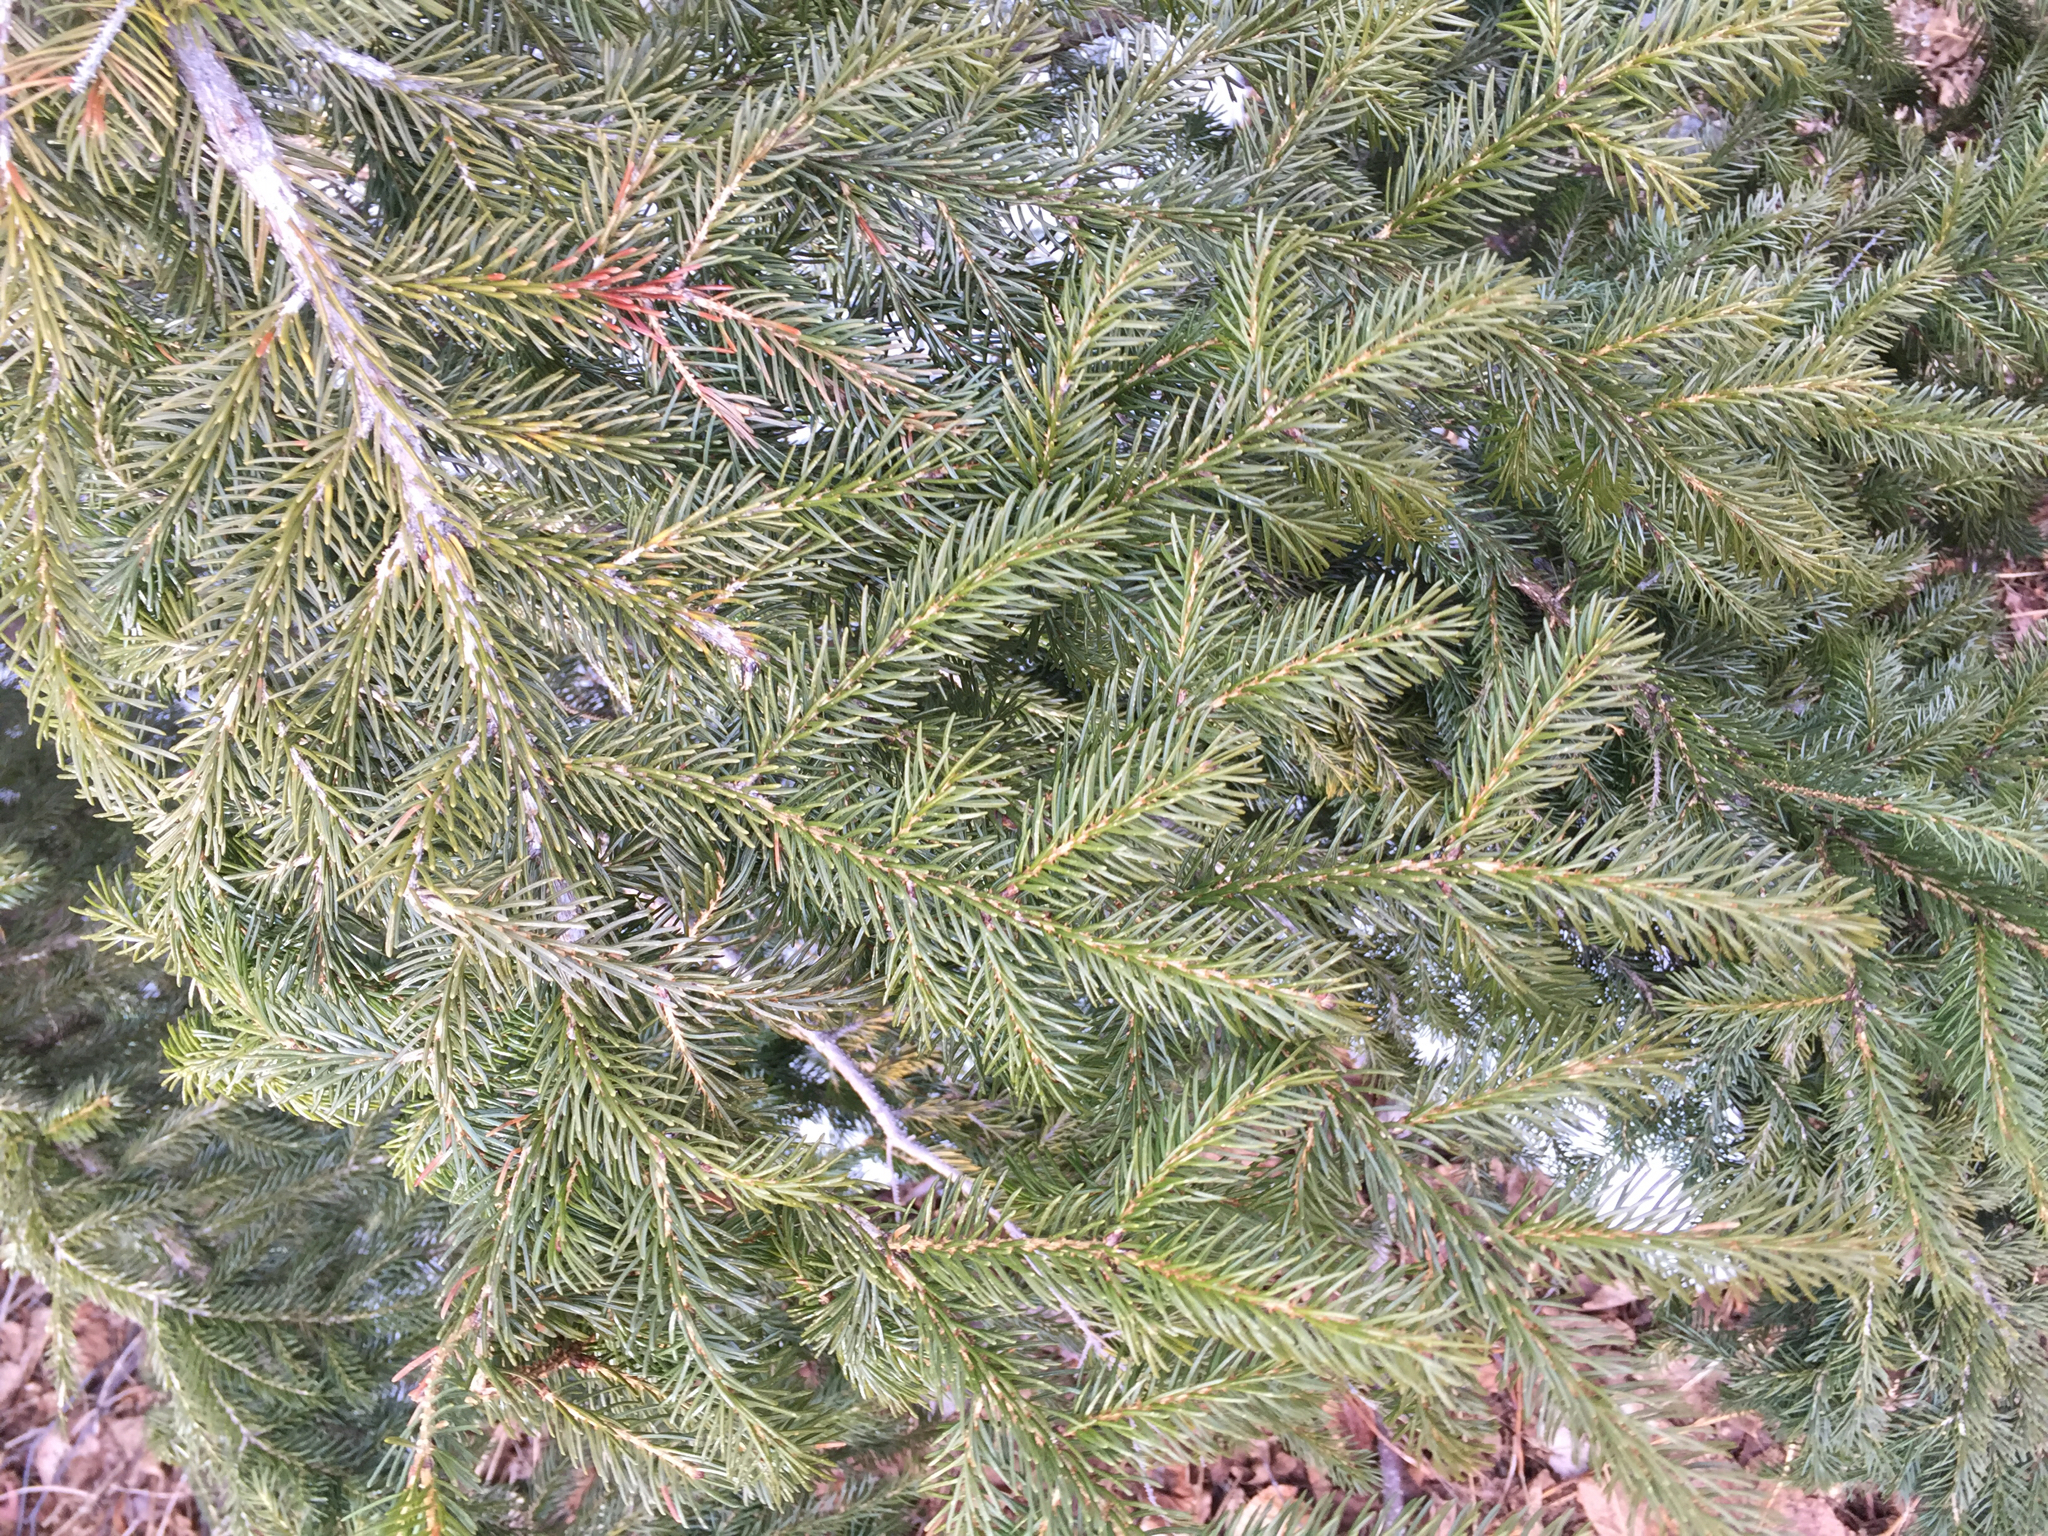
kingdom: Plantae
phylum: Tracheophyta
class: Pinopsida
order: Pinales
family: Pinaceae
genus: Picea
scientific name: Picea rubens
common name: Red spruce
